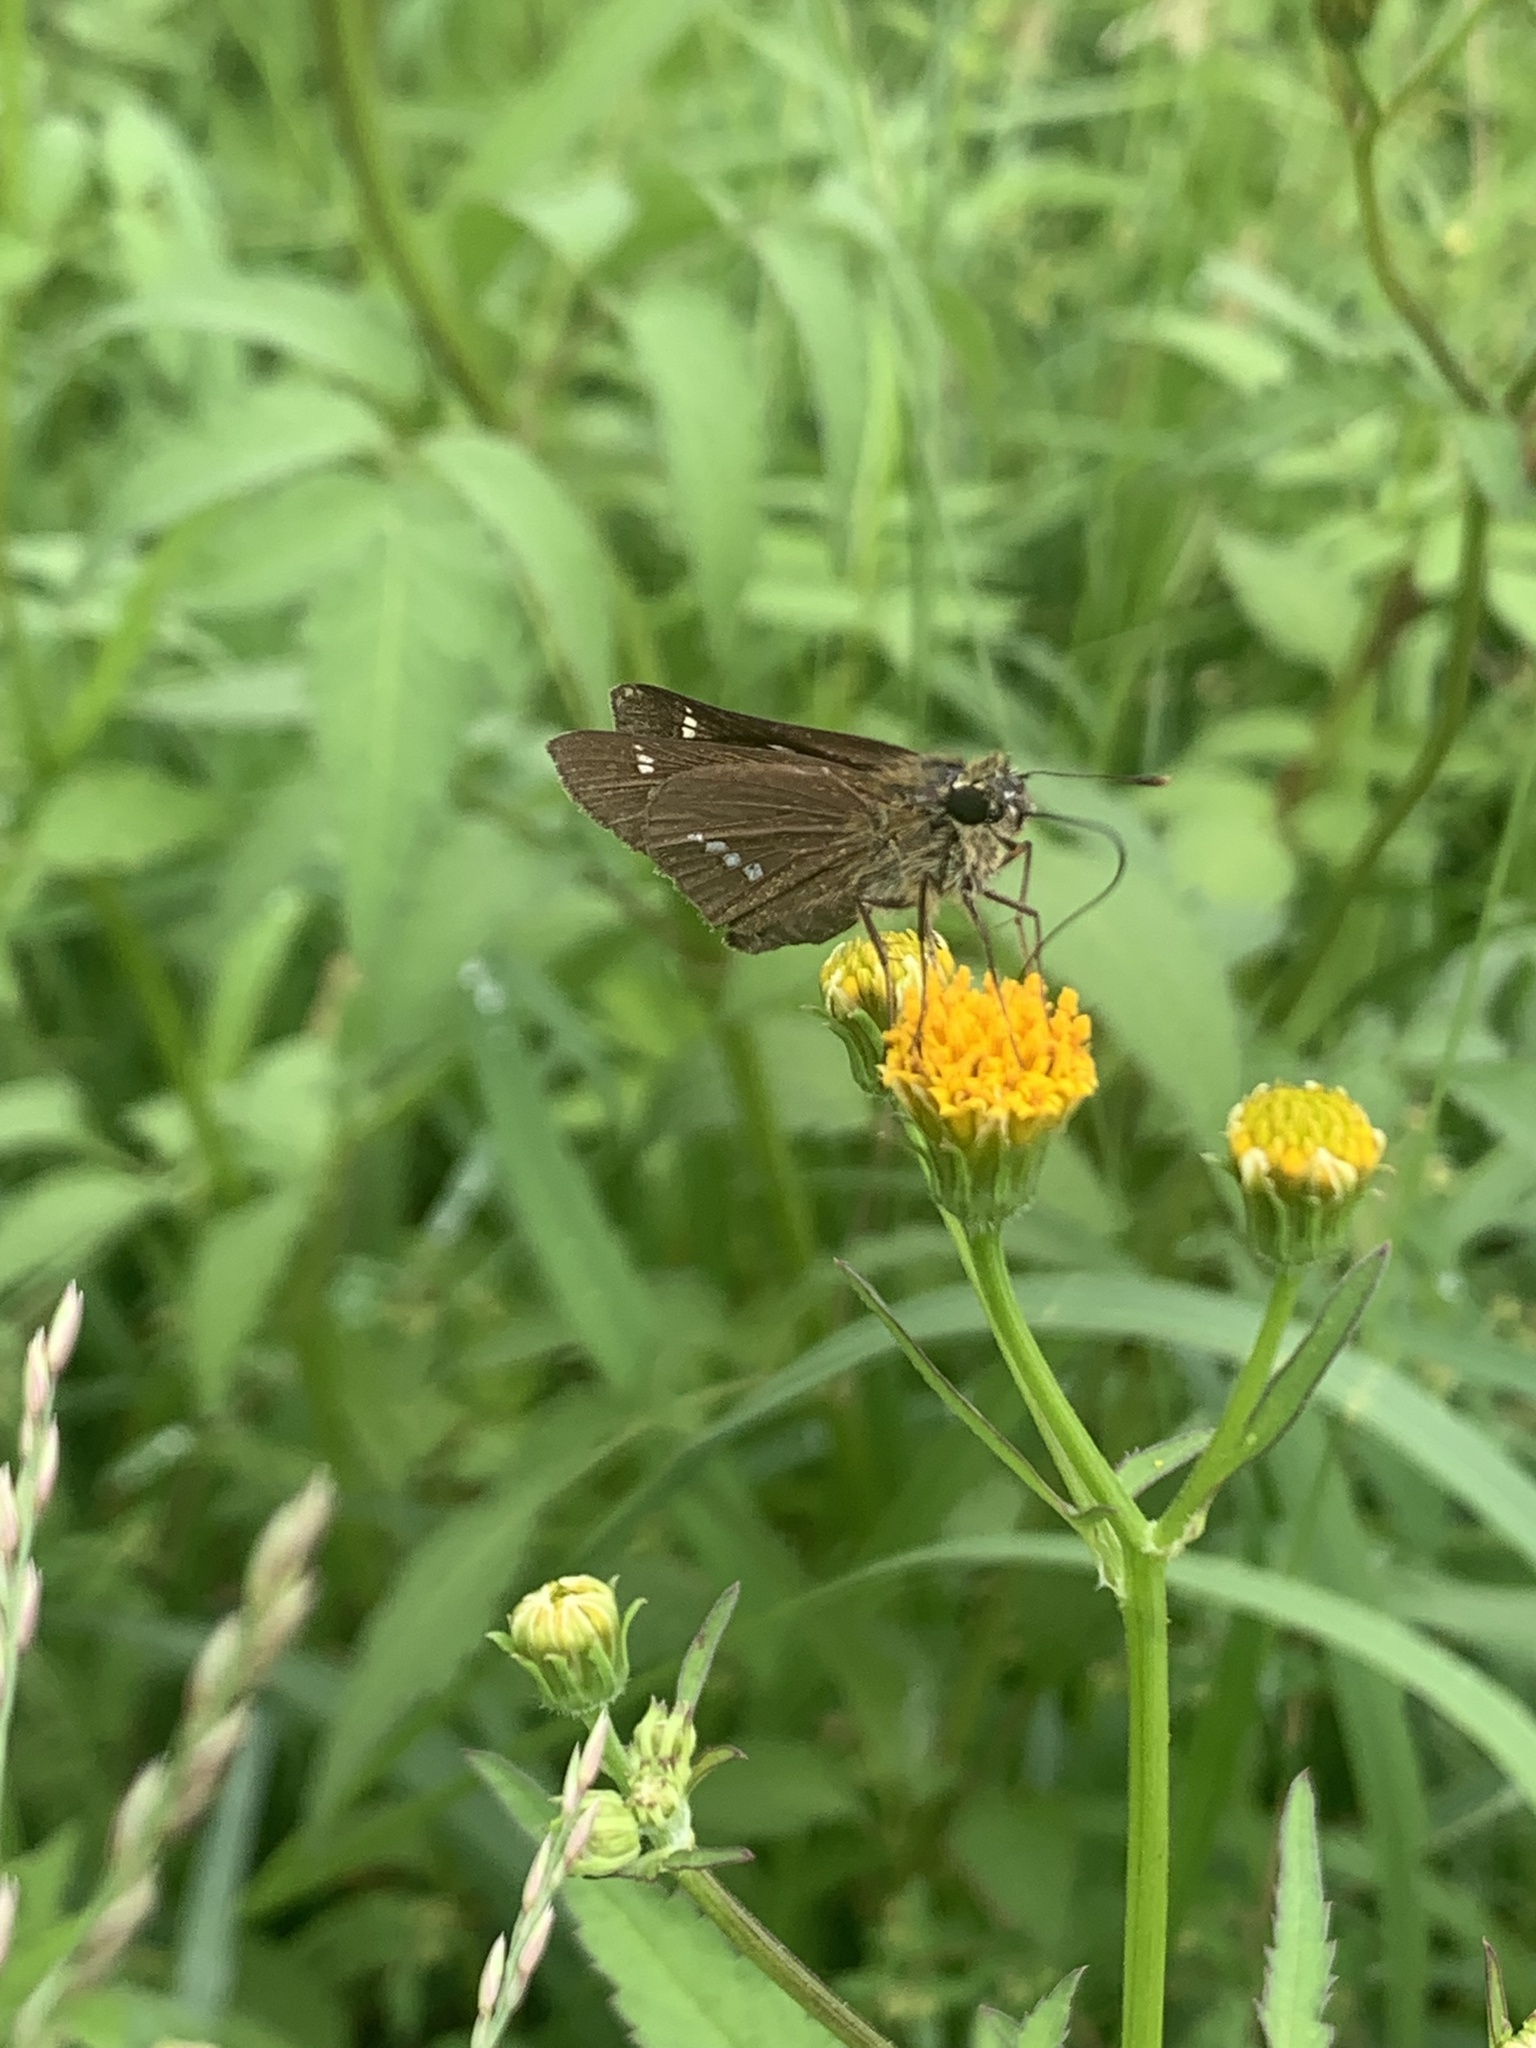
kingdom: Animalia
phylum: Arthropoda
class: Insecta
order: Lepidoptera
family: Hesperiidae
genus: Parnara
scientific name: Parnara guttatus
